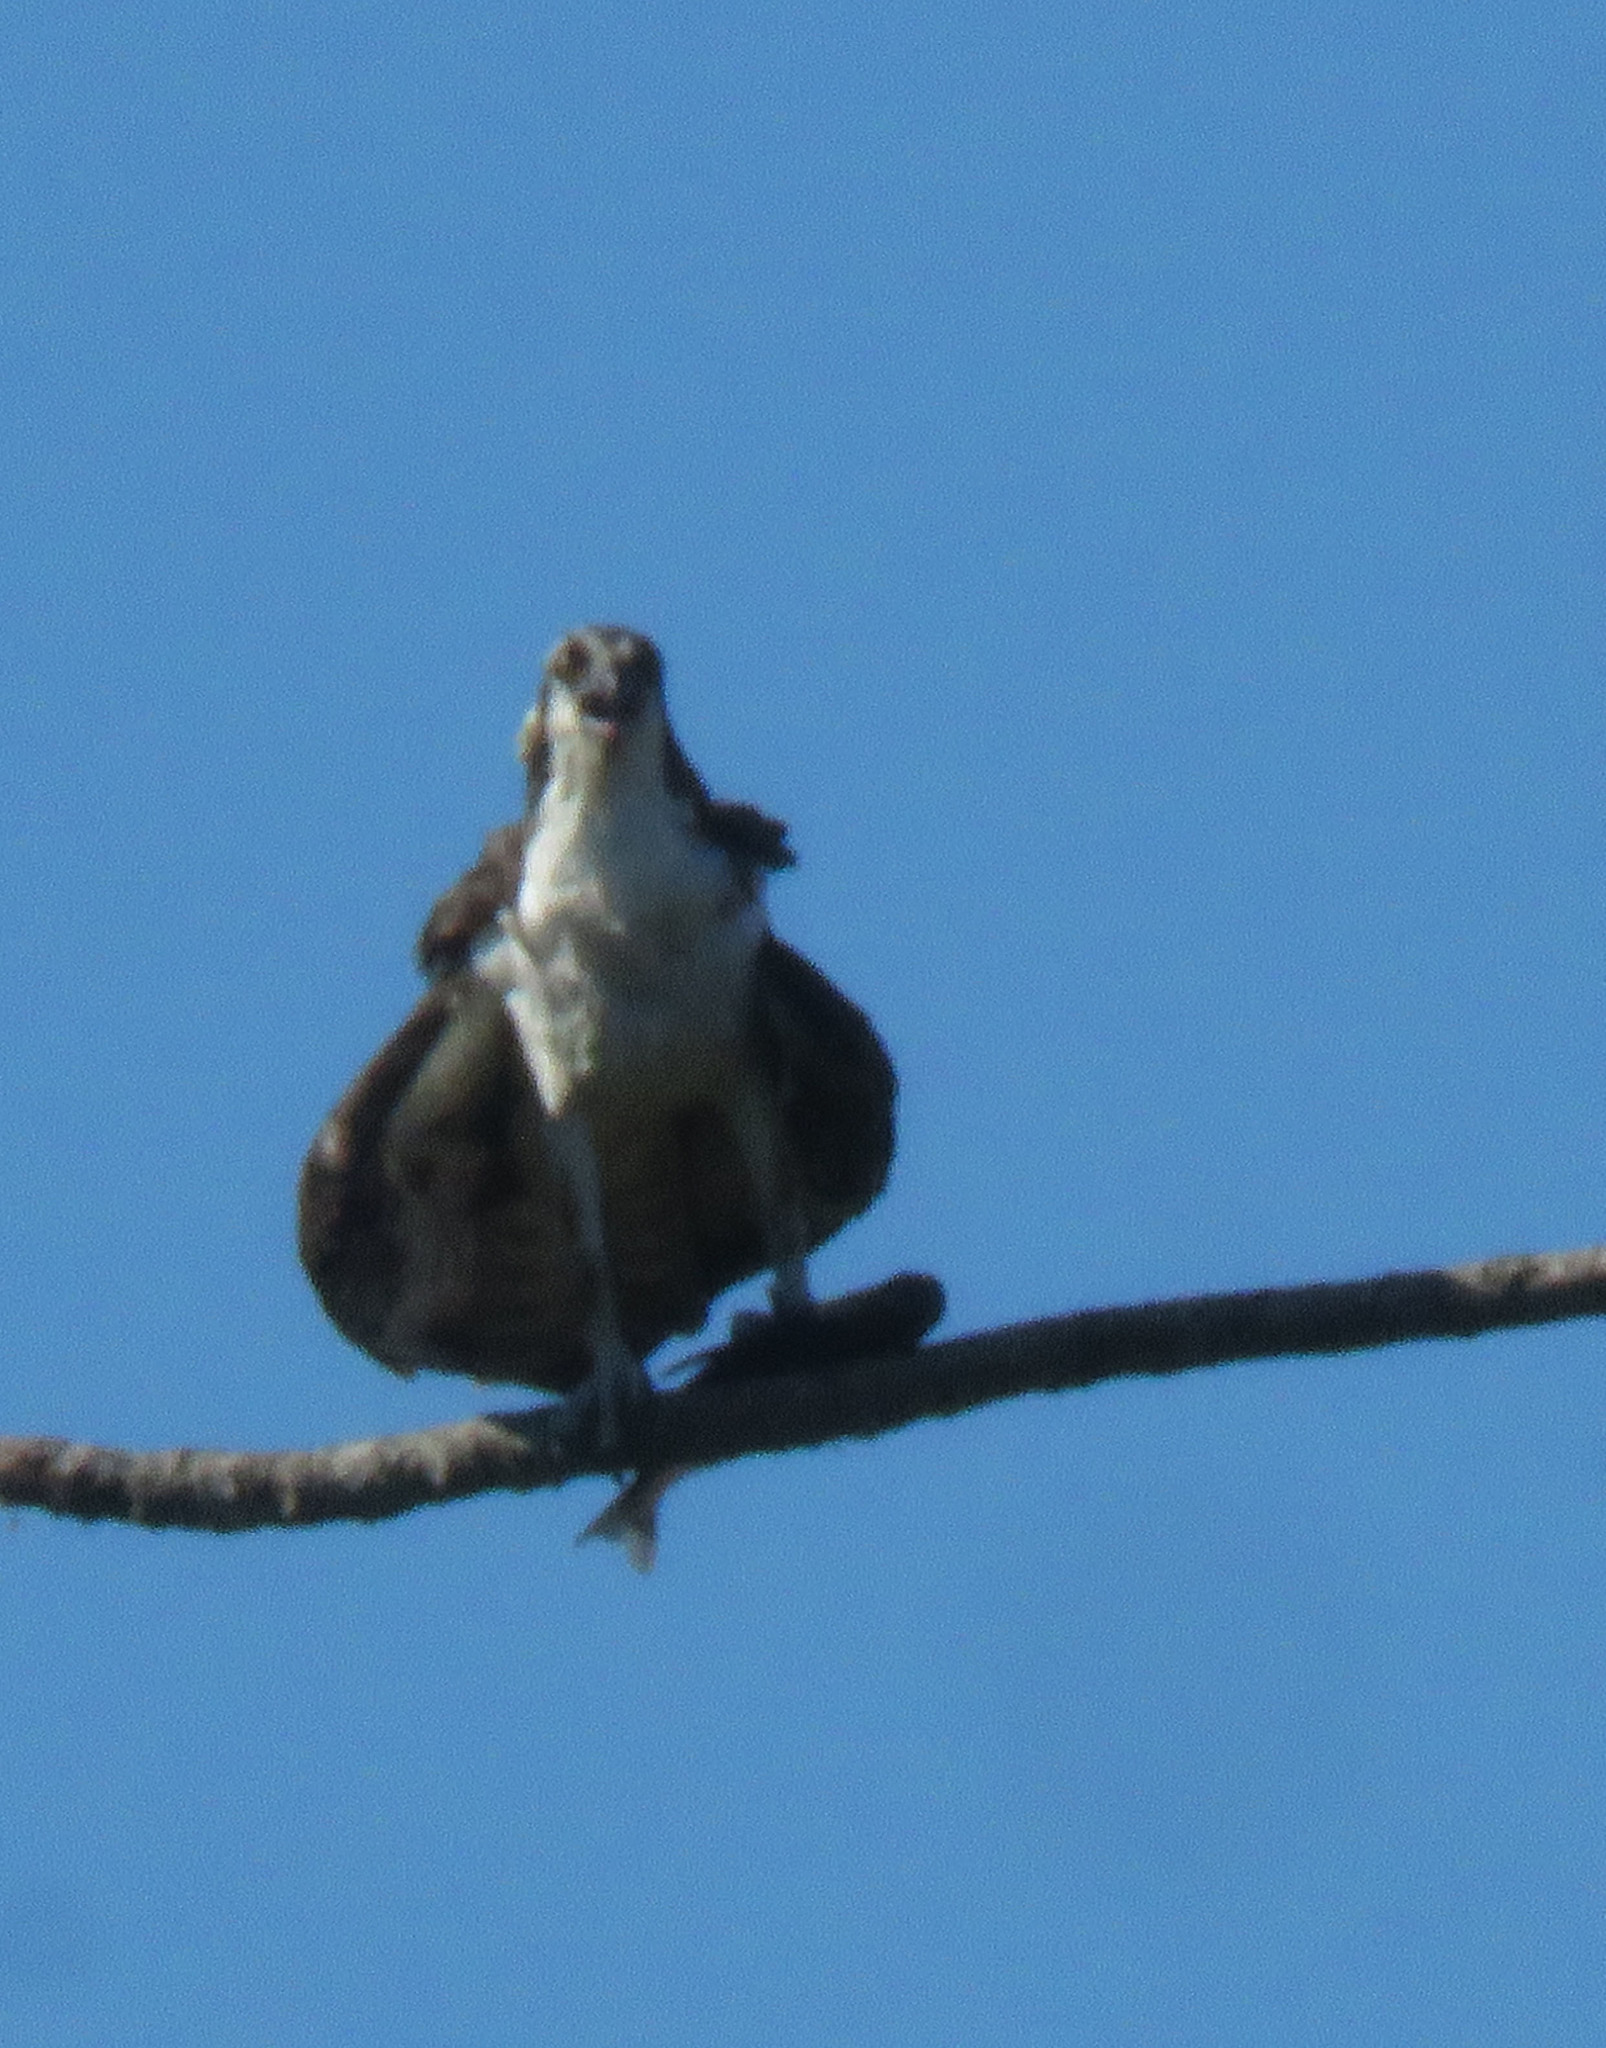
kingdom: Animalia
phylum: Chordata
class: Aves
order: Accipitriformes
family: Pandionidae
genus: Pandion
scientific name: Pandion haliaetus
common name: Osprey
